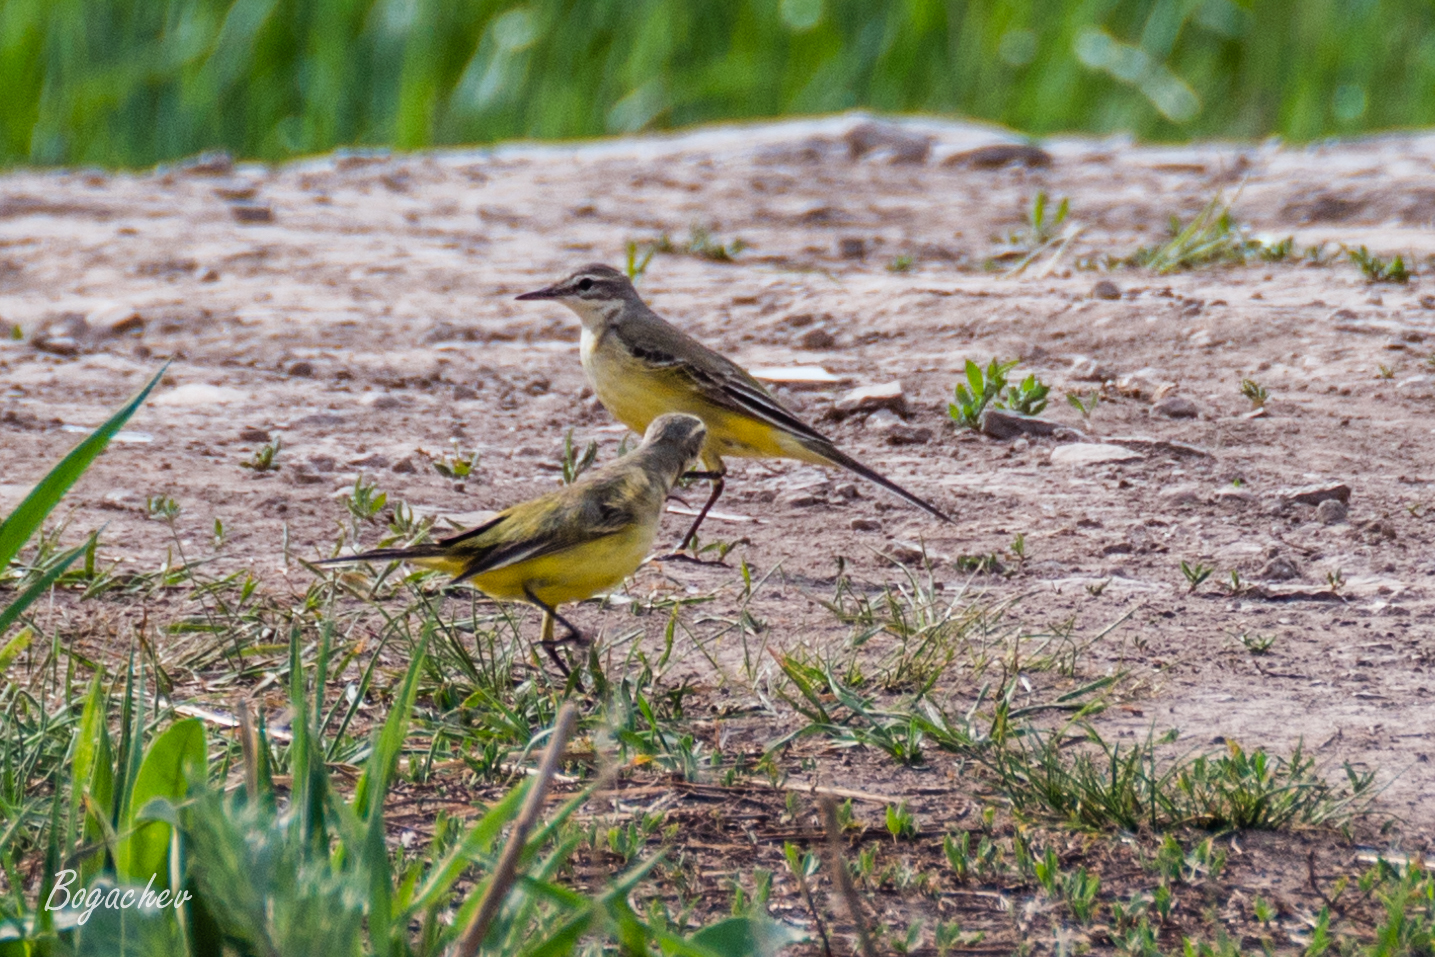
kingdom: Animalia
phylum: Chordata
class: Aves
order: Passeriformes
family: Motacillidae
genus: Motacilla
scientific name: Motacilla flava
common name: Western yellow wagtail
